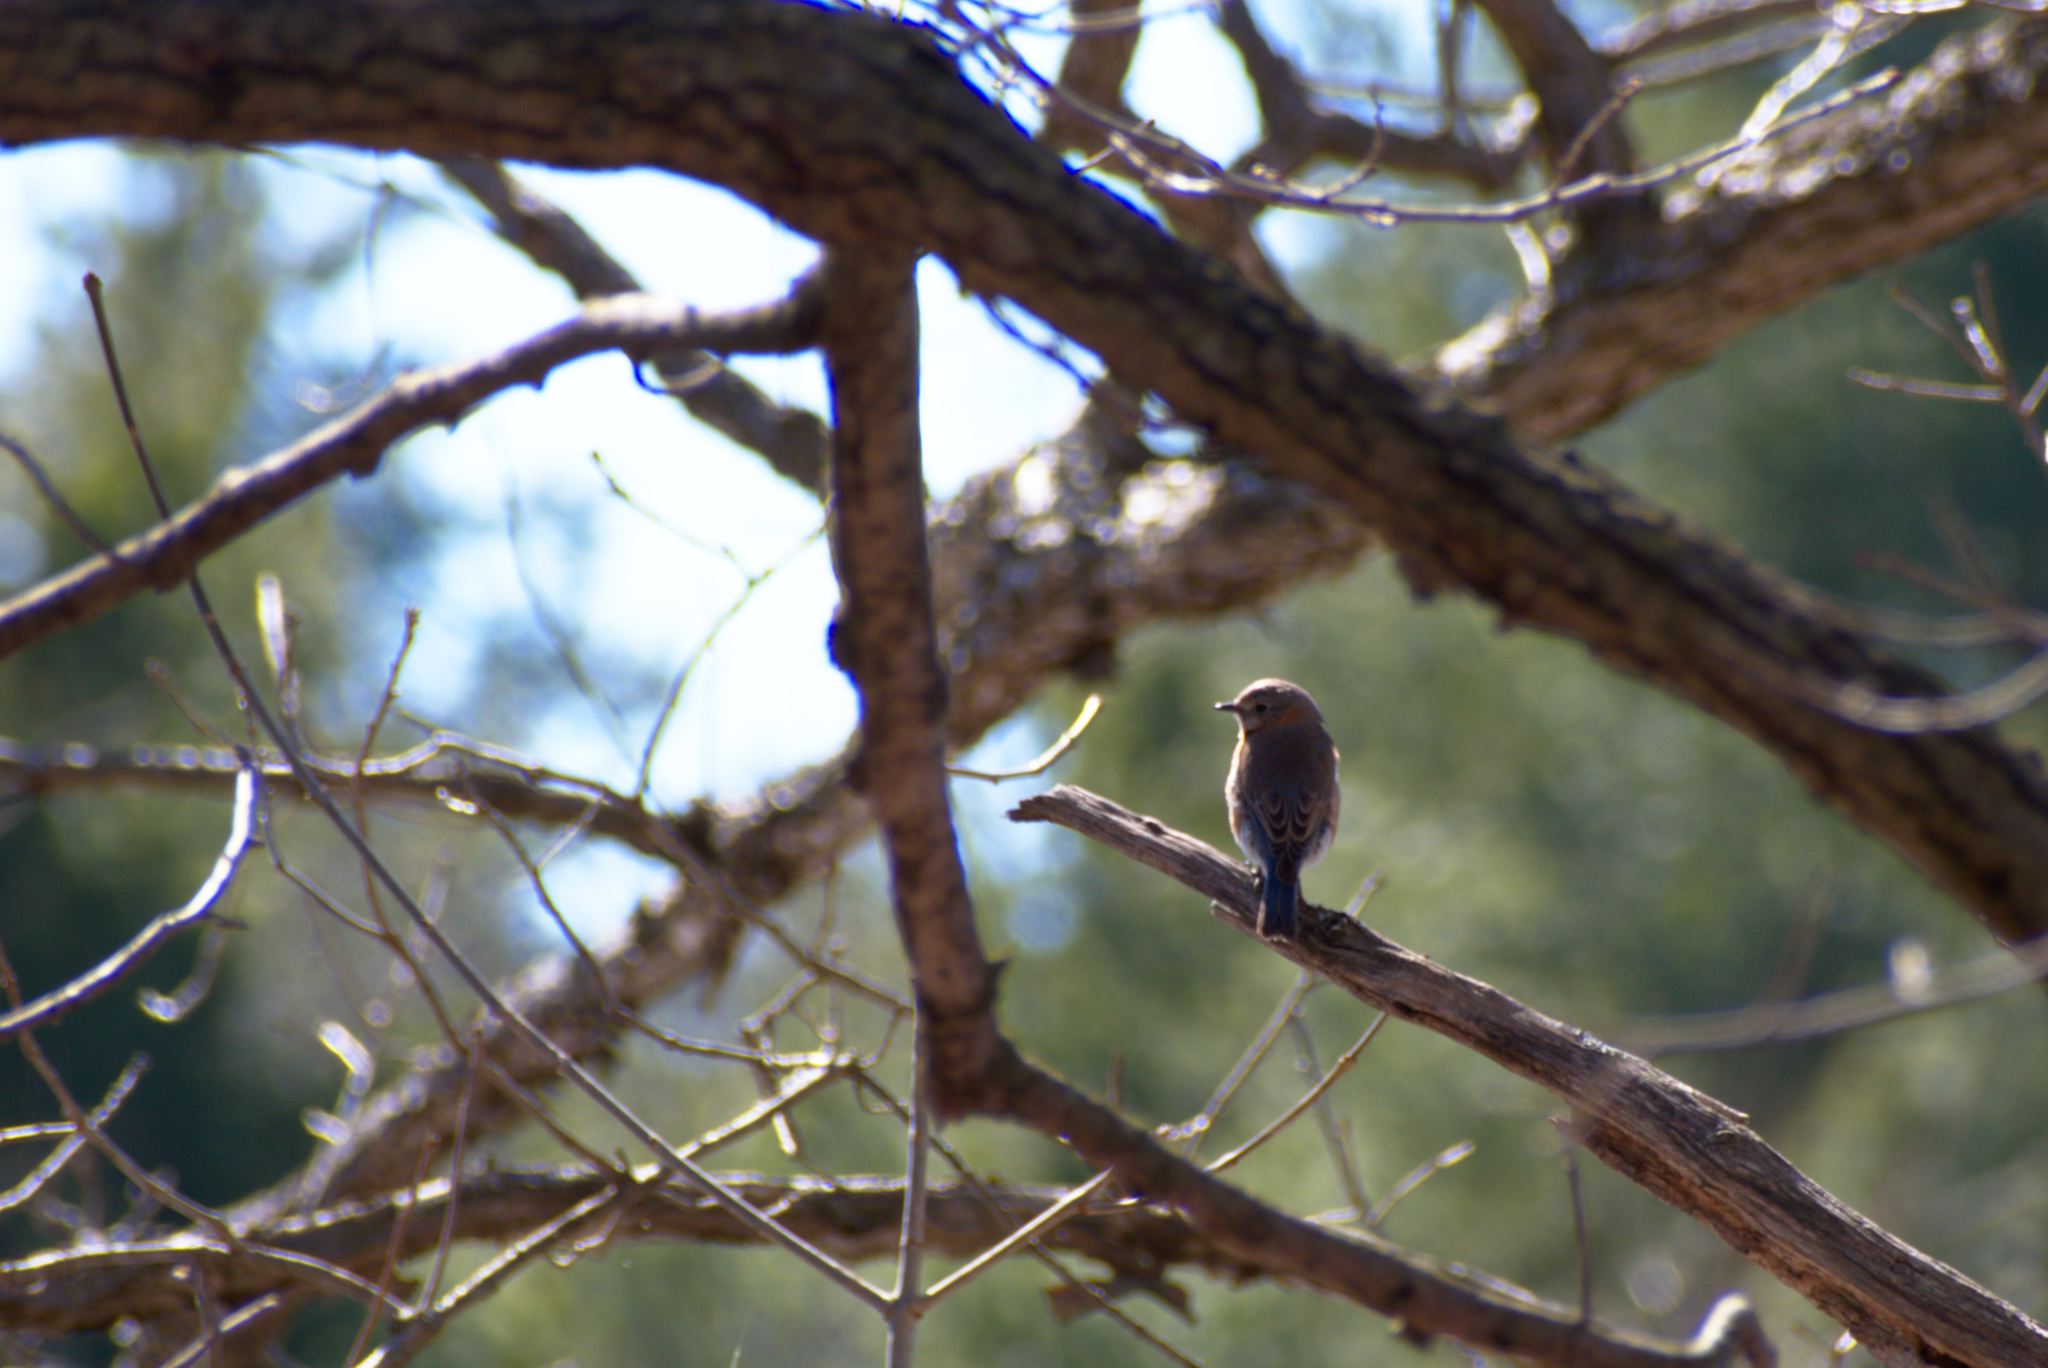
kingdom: Animalia
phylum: Chordata
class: Aves
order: Passeriformes
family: Turdidae
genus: Sialia
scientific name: Sialia sialis
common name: Eastern bluebird
